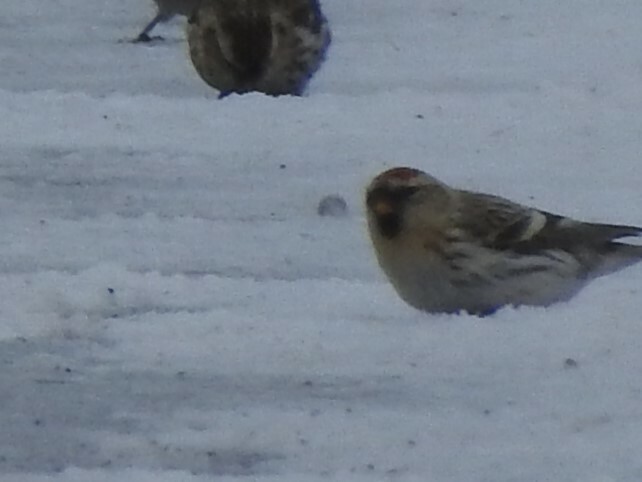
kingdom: Animalia
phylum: Chordata
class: Aves
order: Passeriformes
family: Fringillidae
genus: Acanthis
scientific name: Acanthis flammea
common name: Common redpoll
